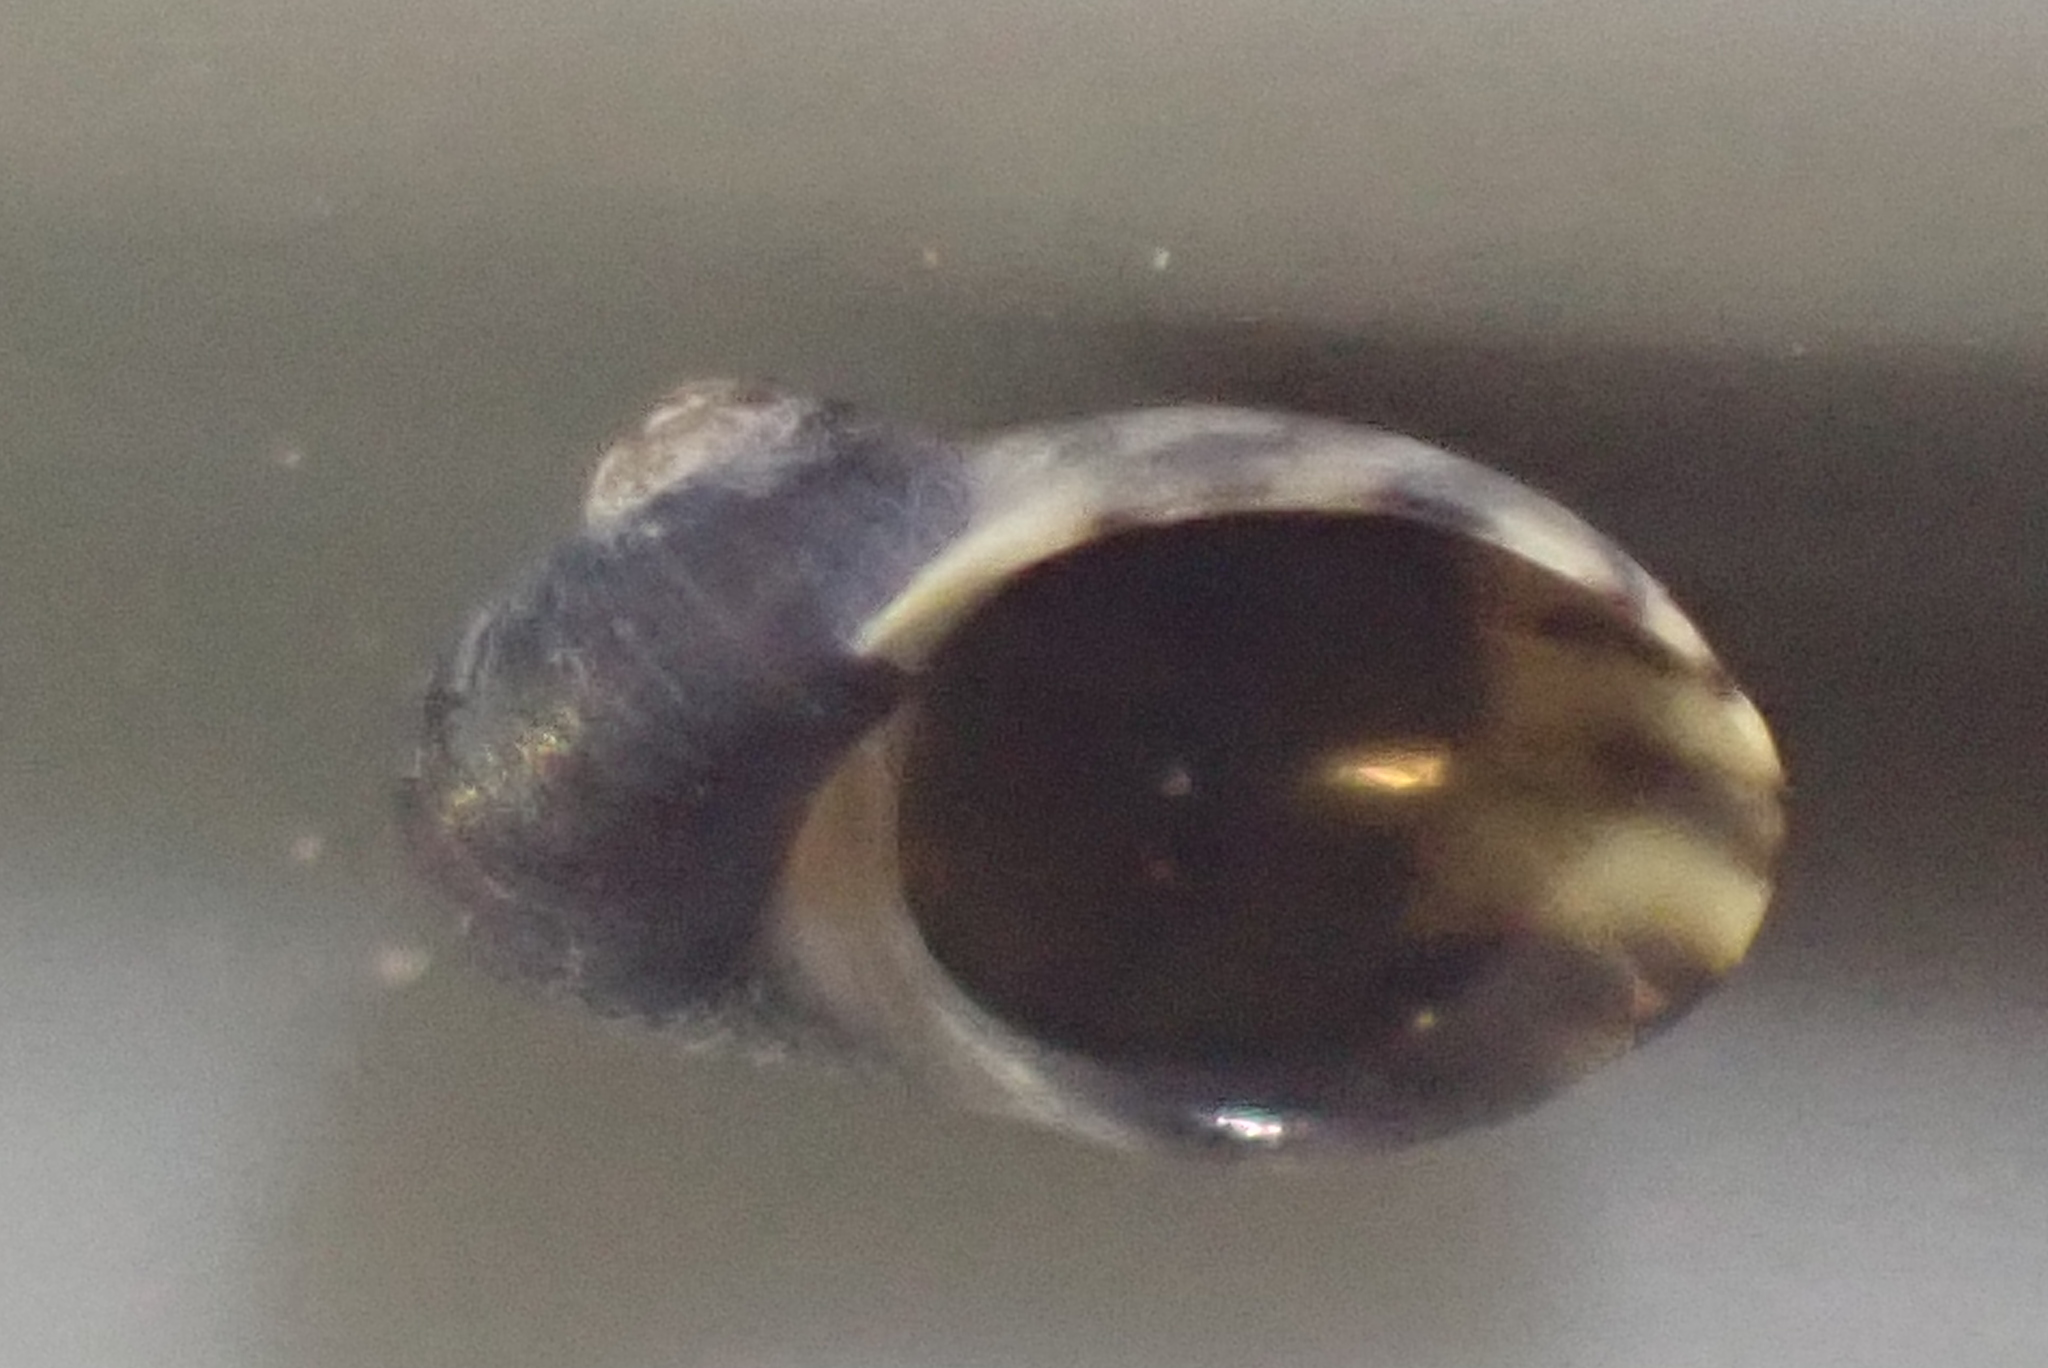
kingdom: Animalia
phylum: Mollusca
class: Gastropoda
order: Trochida
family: Trochidae
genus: Fossarina
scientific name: Fossarina rimata
